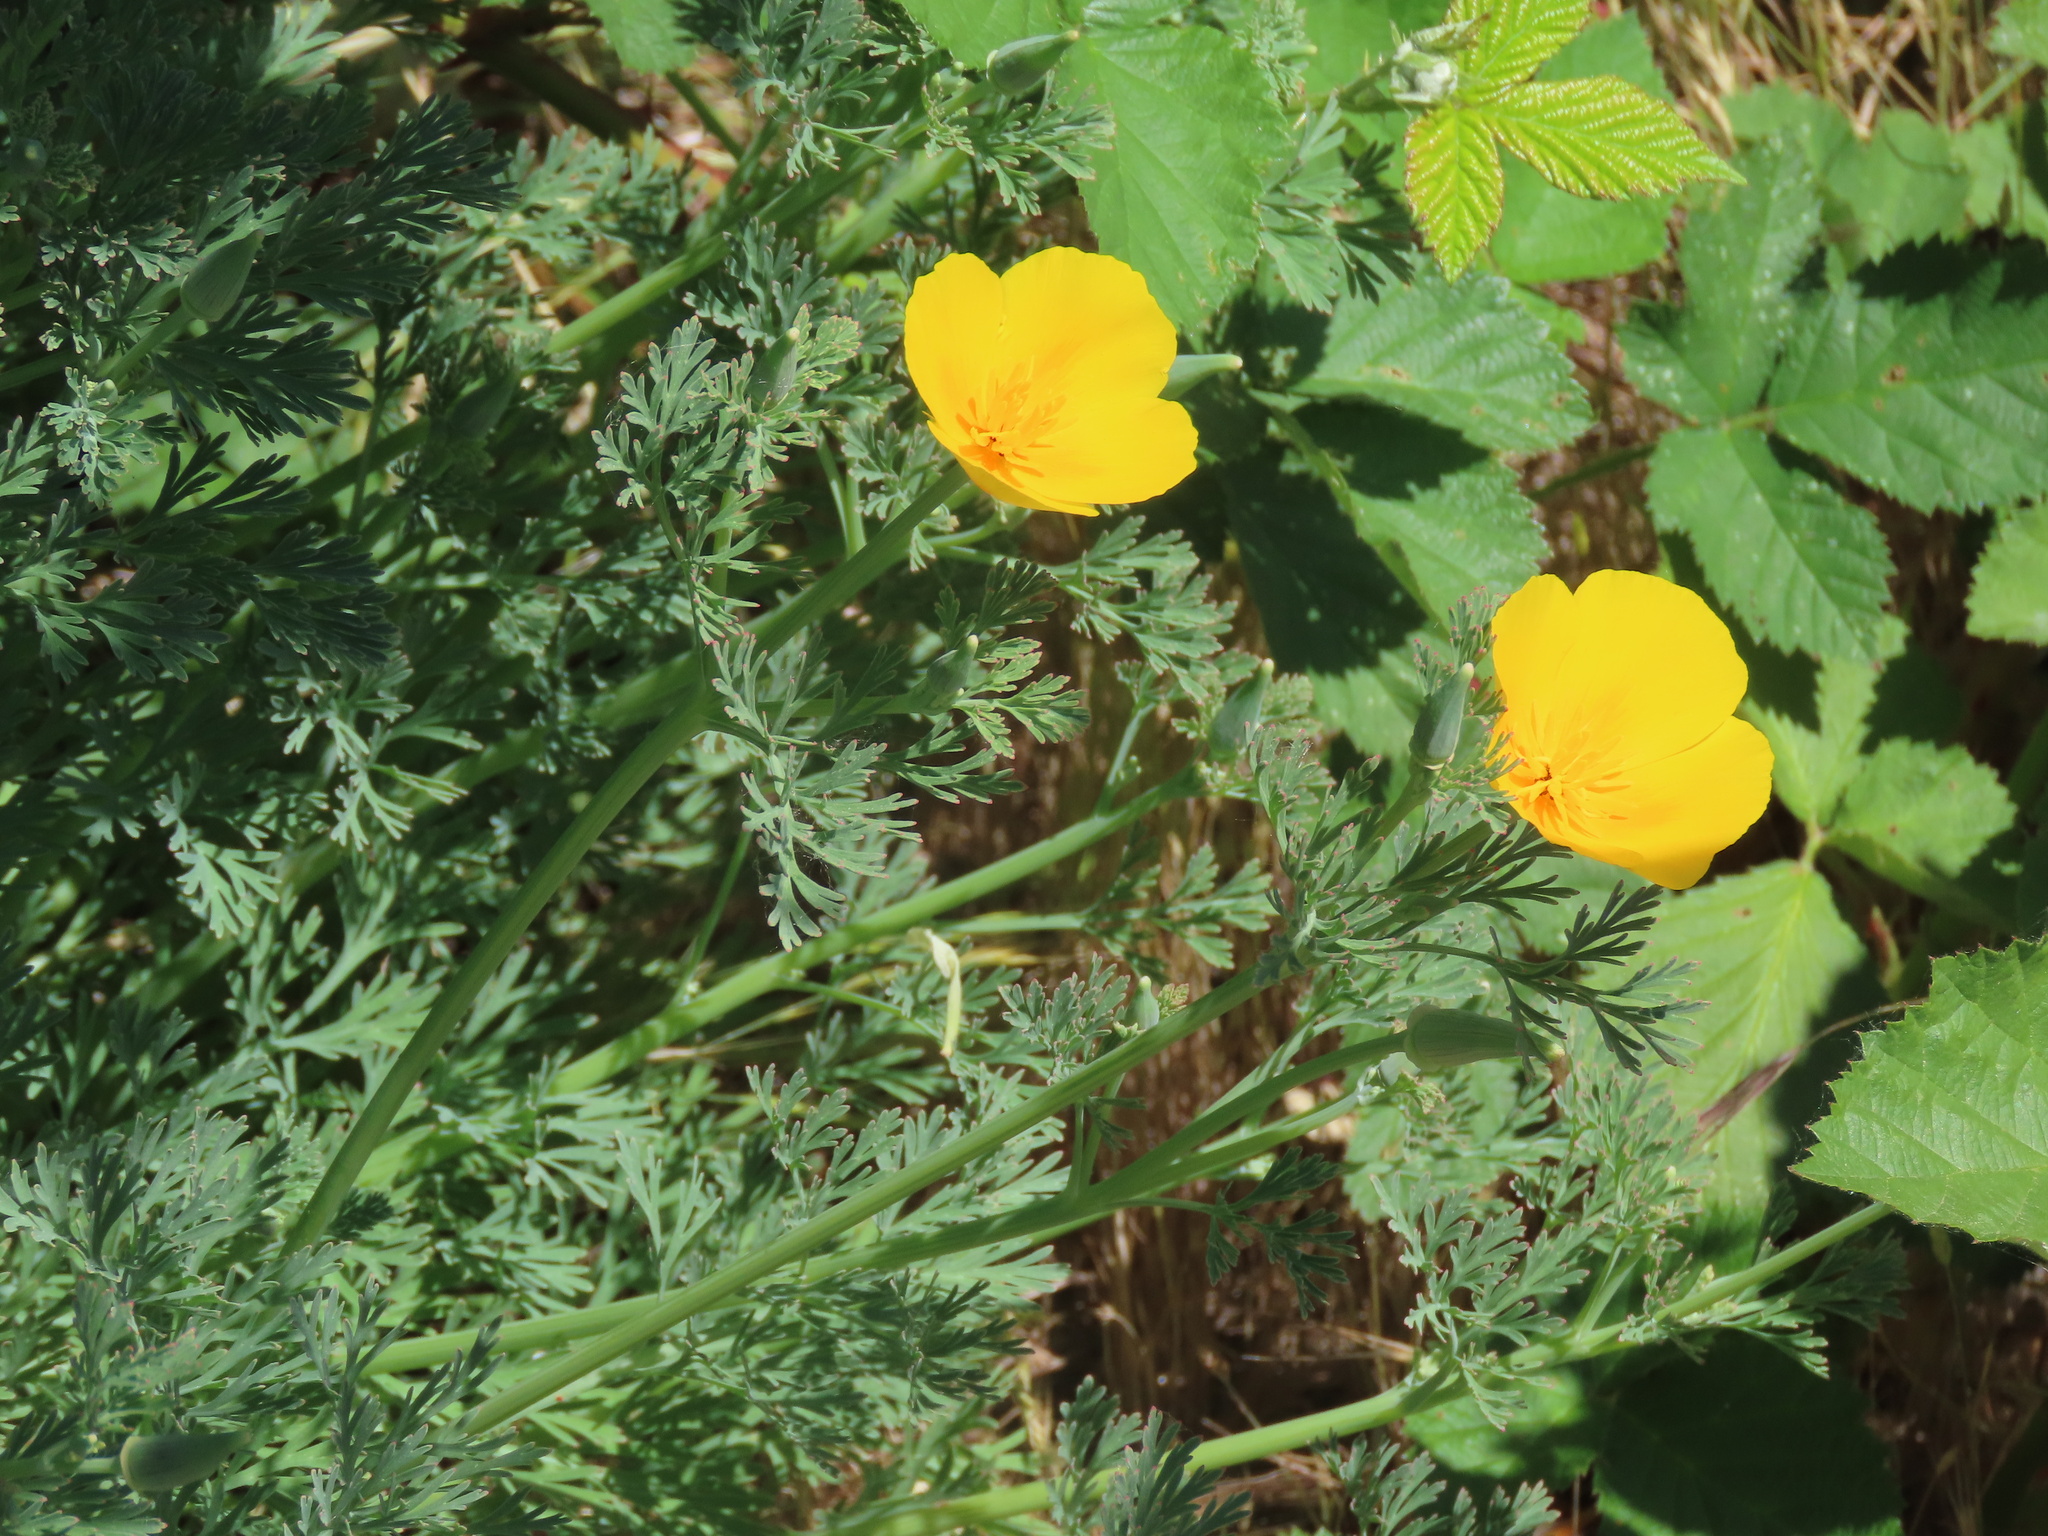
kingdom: Plantae
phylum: Tracheophyta
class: Magnoliopsida
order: Ranunculales
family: Papaveraceae
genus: Eschscholzia
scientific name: Eschscholzia californica
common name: California poppy
